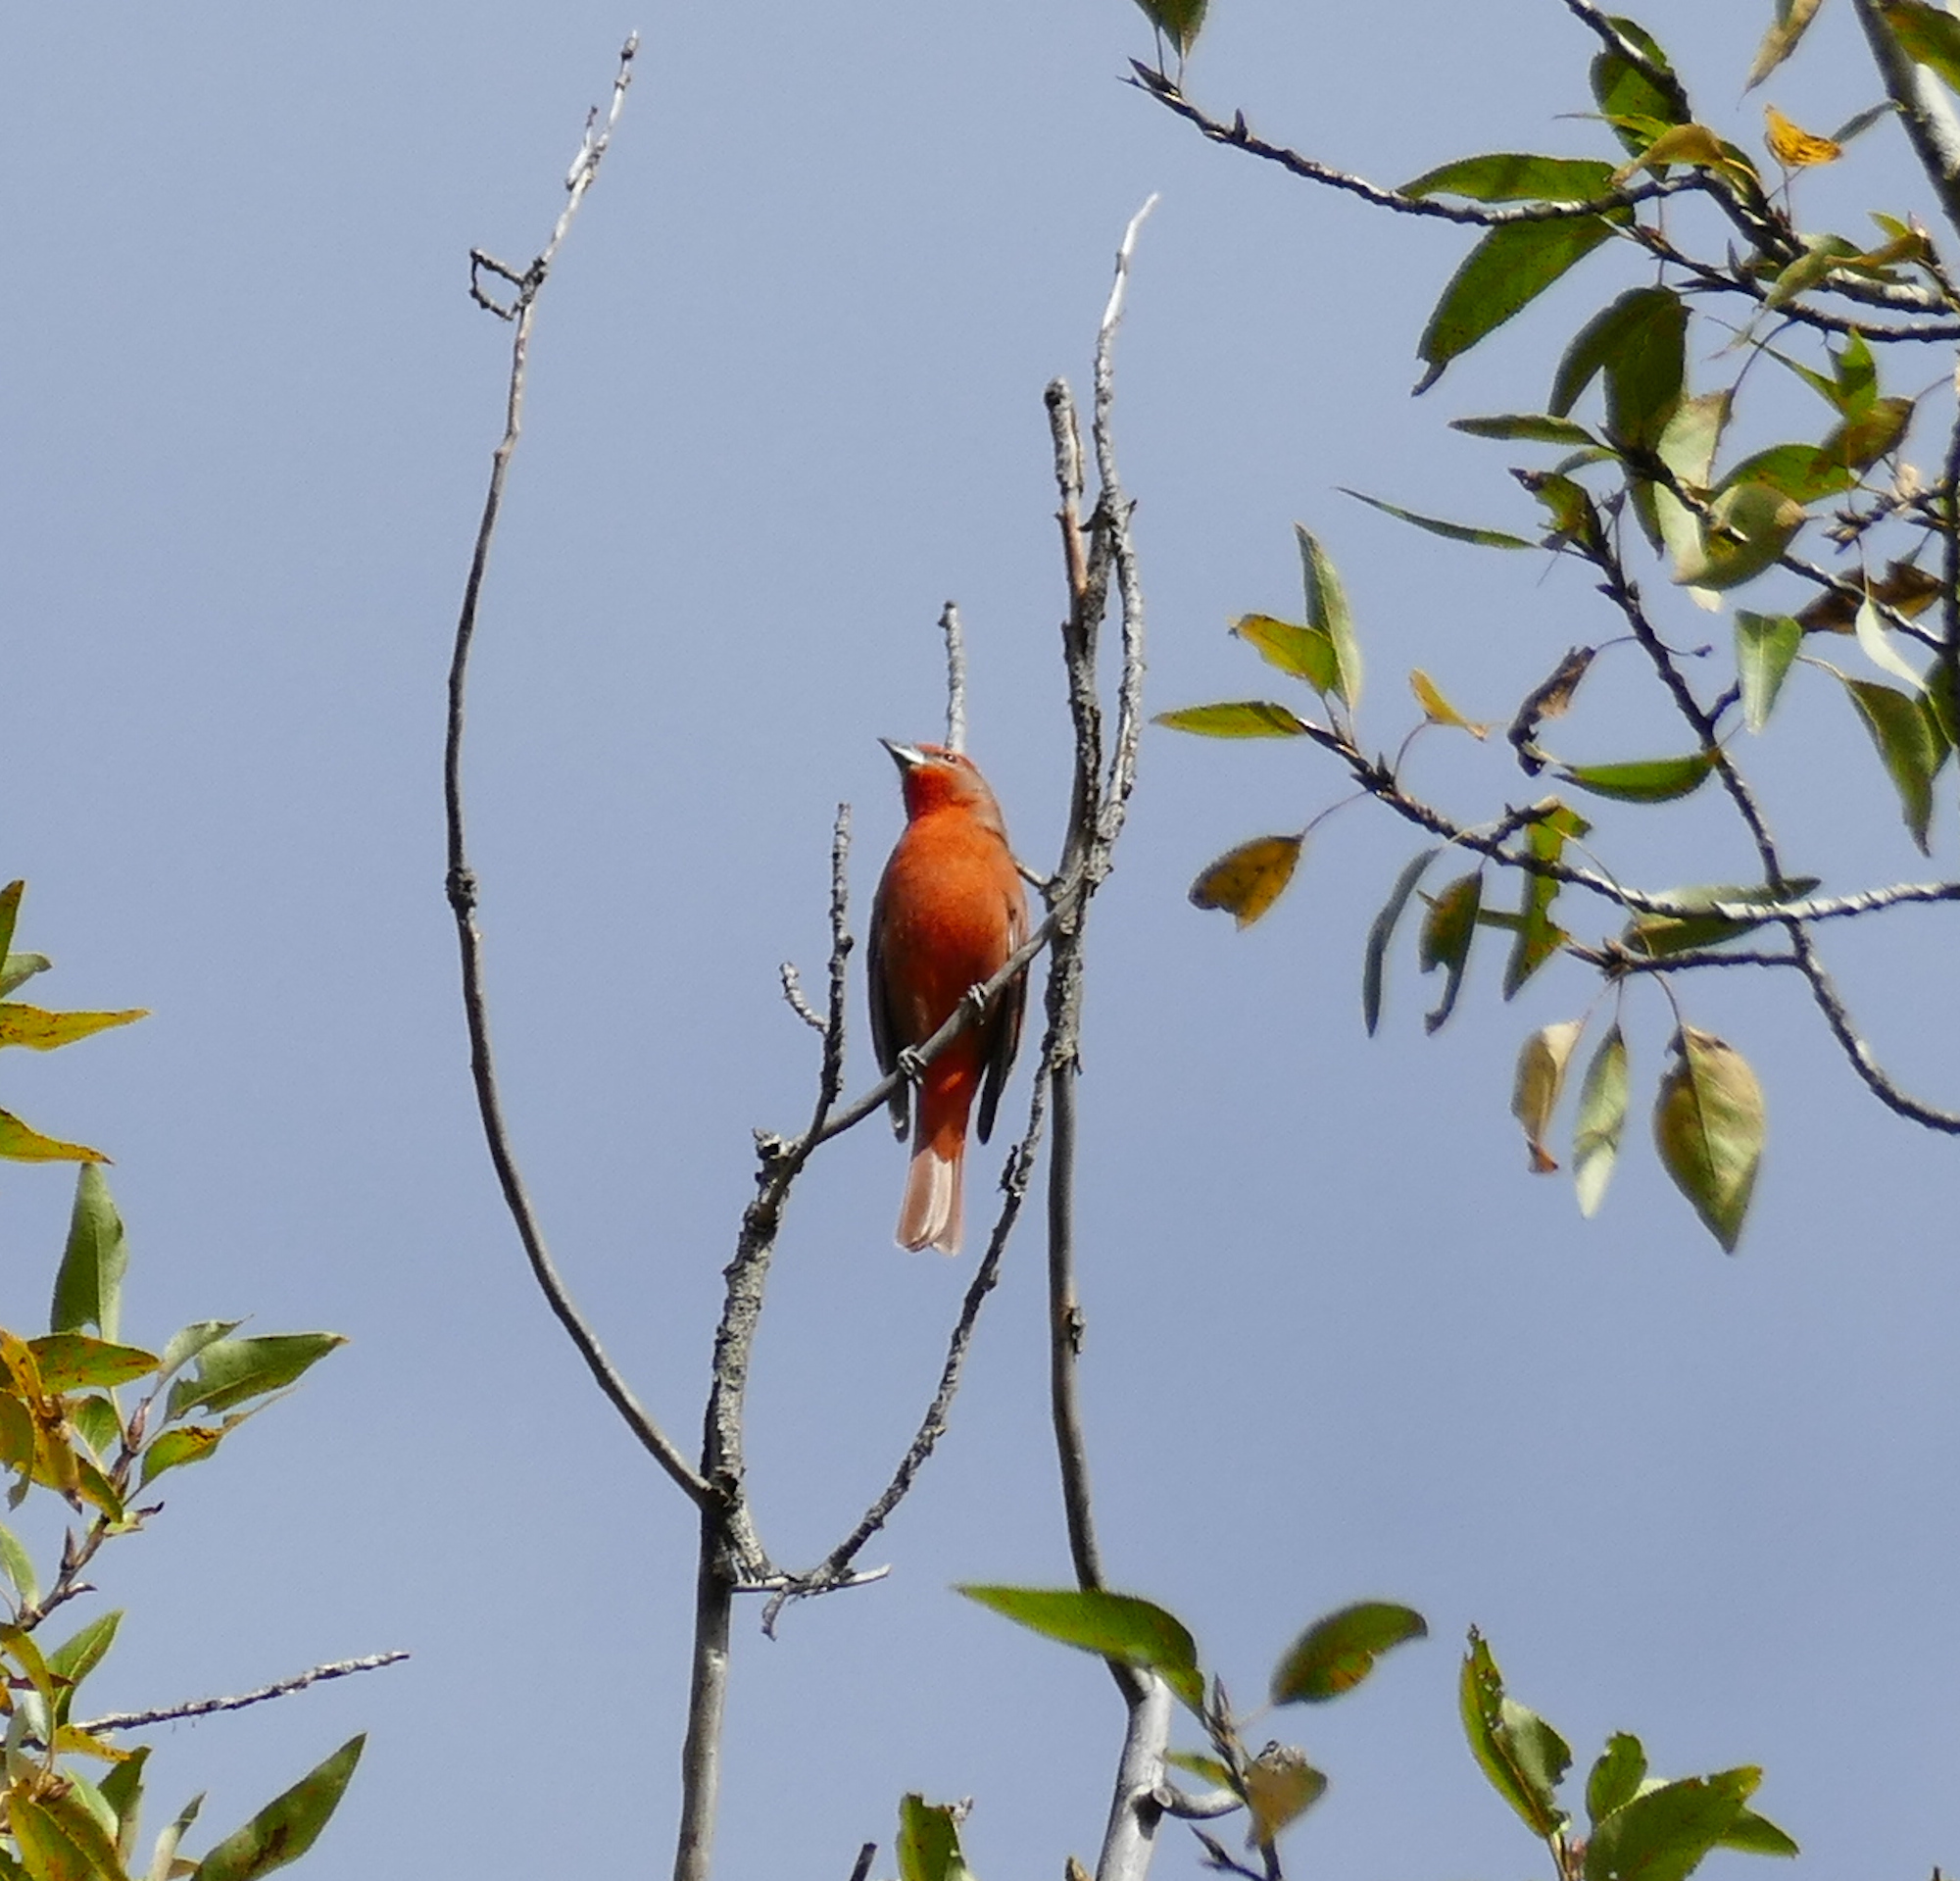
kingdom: Animalia
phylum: Chordata
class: Aves
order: Passeriformes
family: Cardinalidae
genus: Piranga
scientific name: Piranga flava
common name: Red tanager
